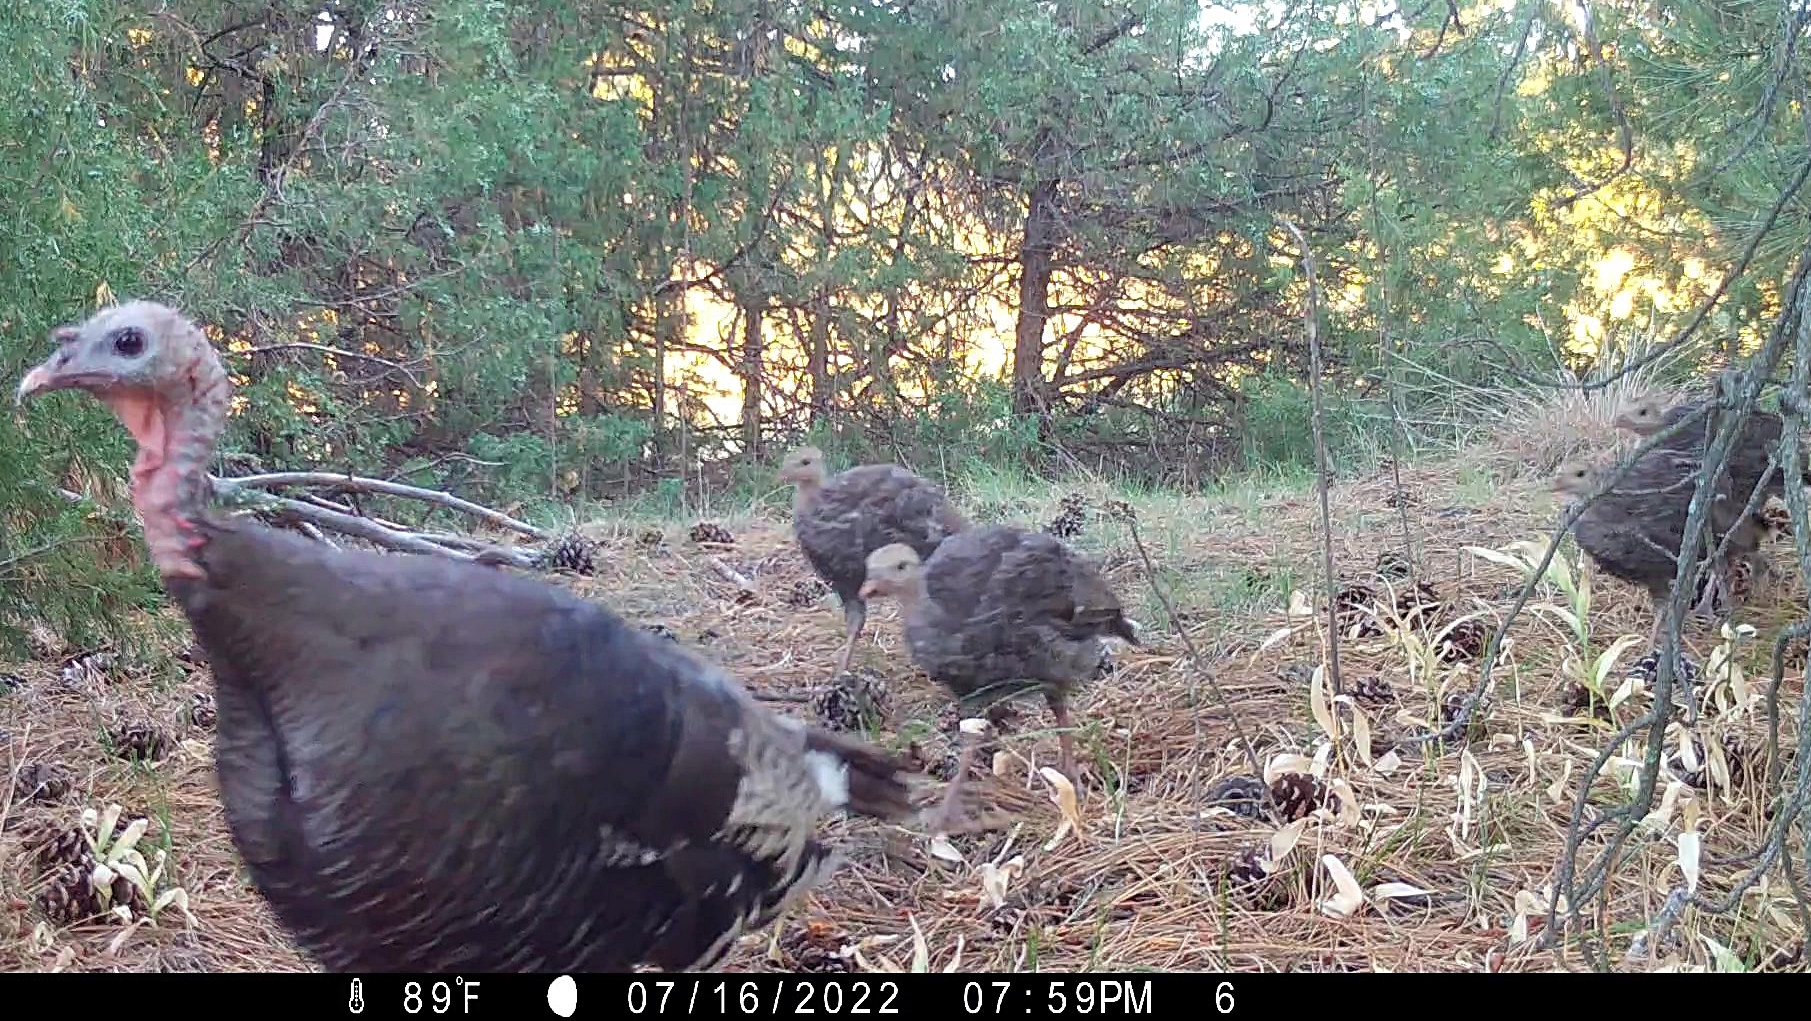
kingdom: Animalia
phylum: Chordata
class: Aves
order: Galliformes
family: Phasianidae
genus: Meleagris
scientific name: Meleagris gallopavo
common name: Wild turkey
